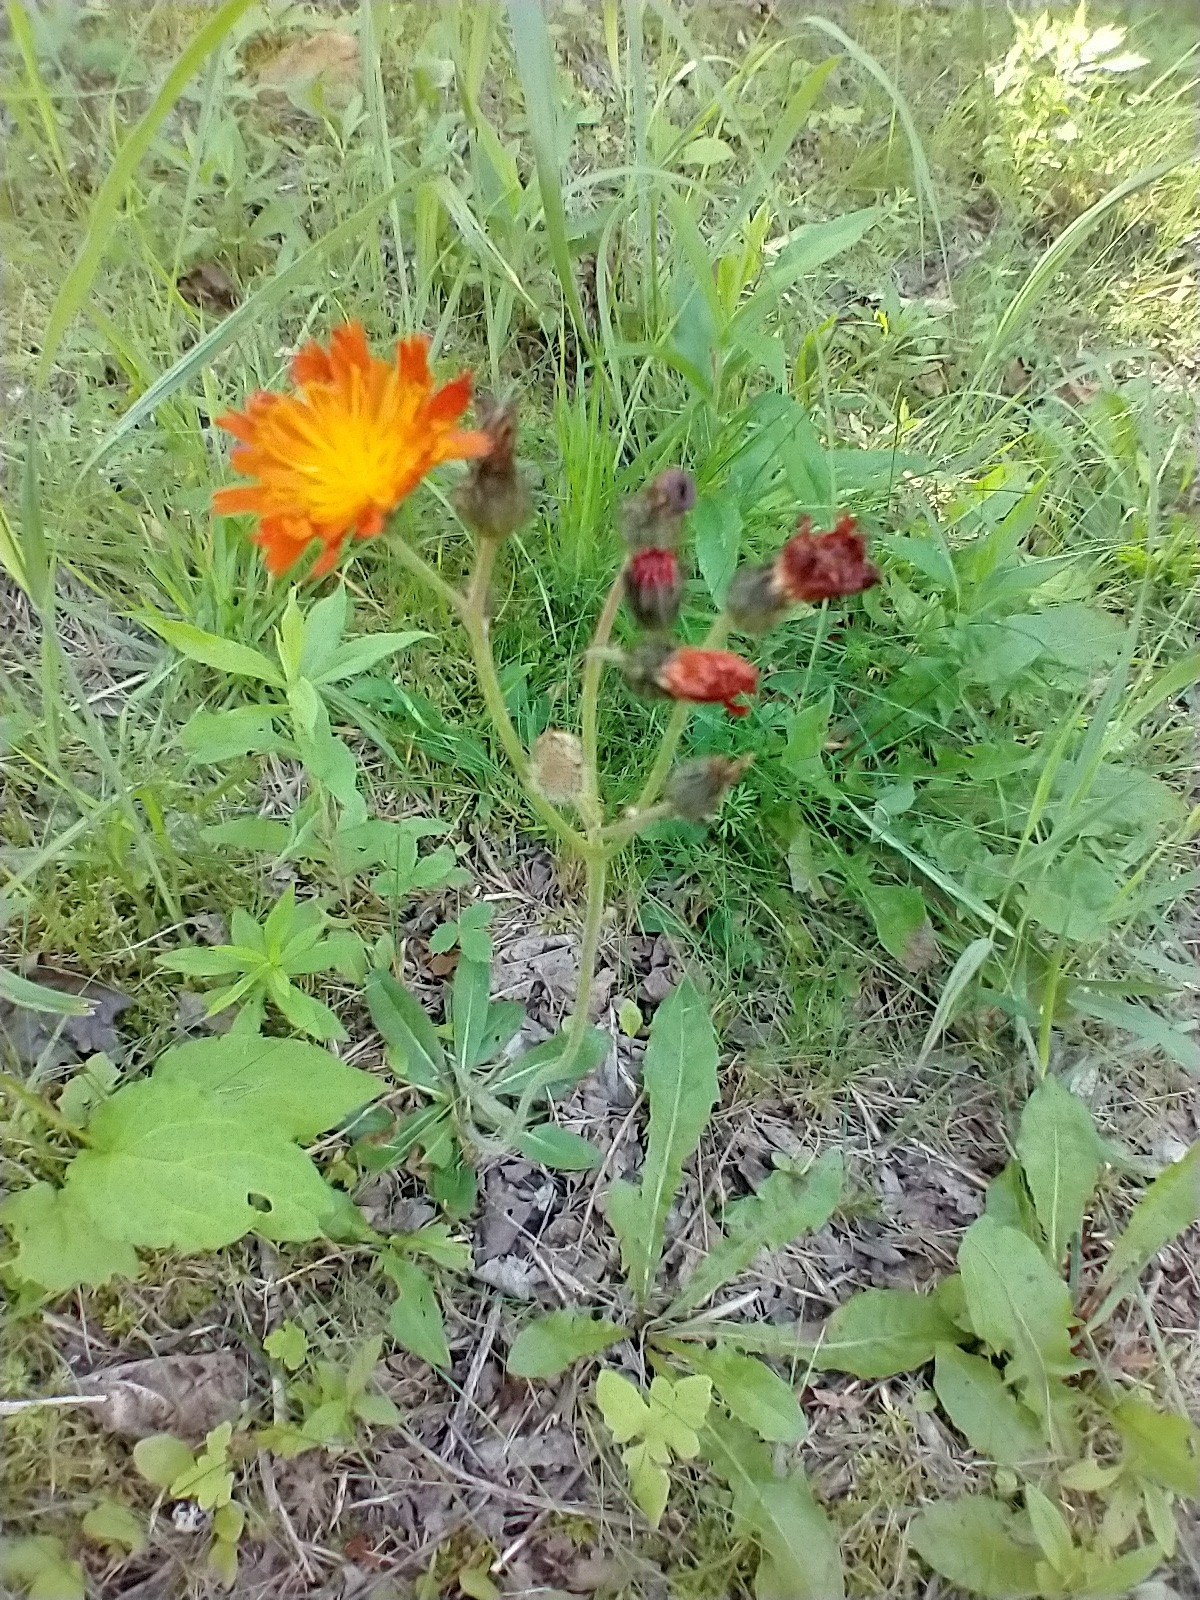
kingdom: Plantae
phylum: Tracheophyta
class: Magnoliopsida
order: Asterales
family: Asteraceae
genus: Pilosella
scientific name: Pilosella aurantiaca
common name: Fox-and-cubs
